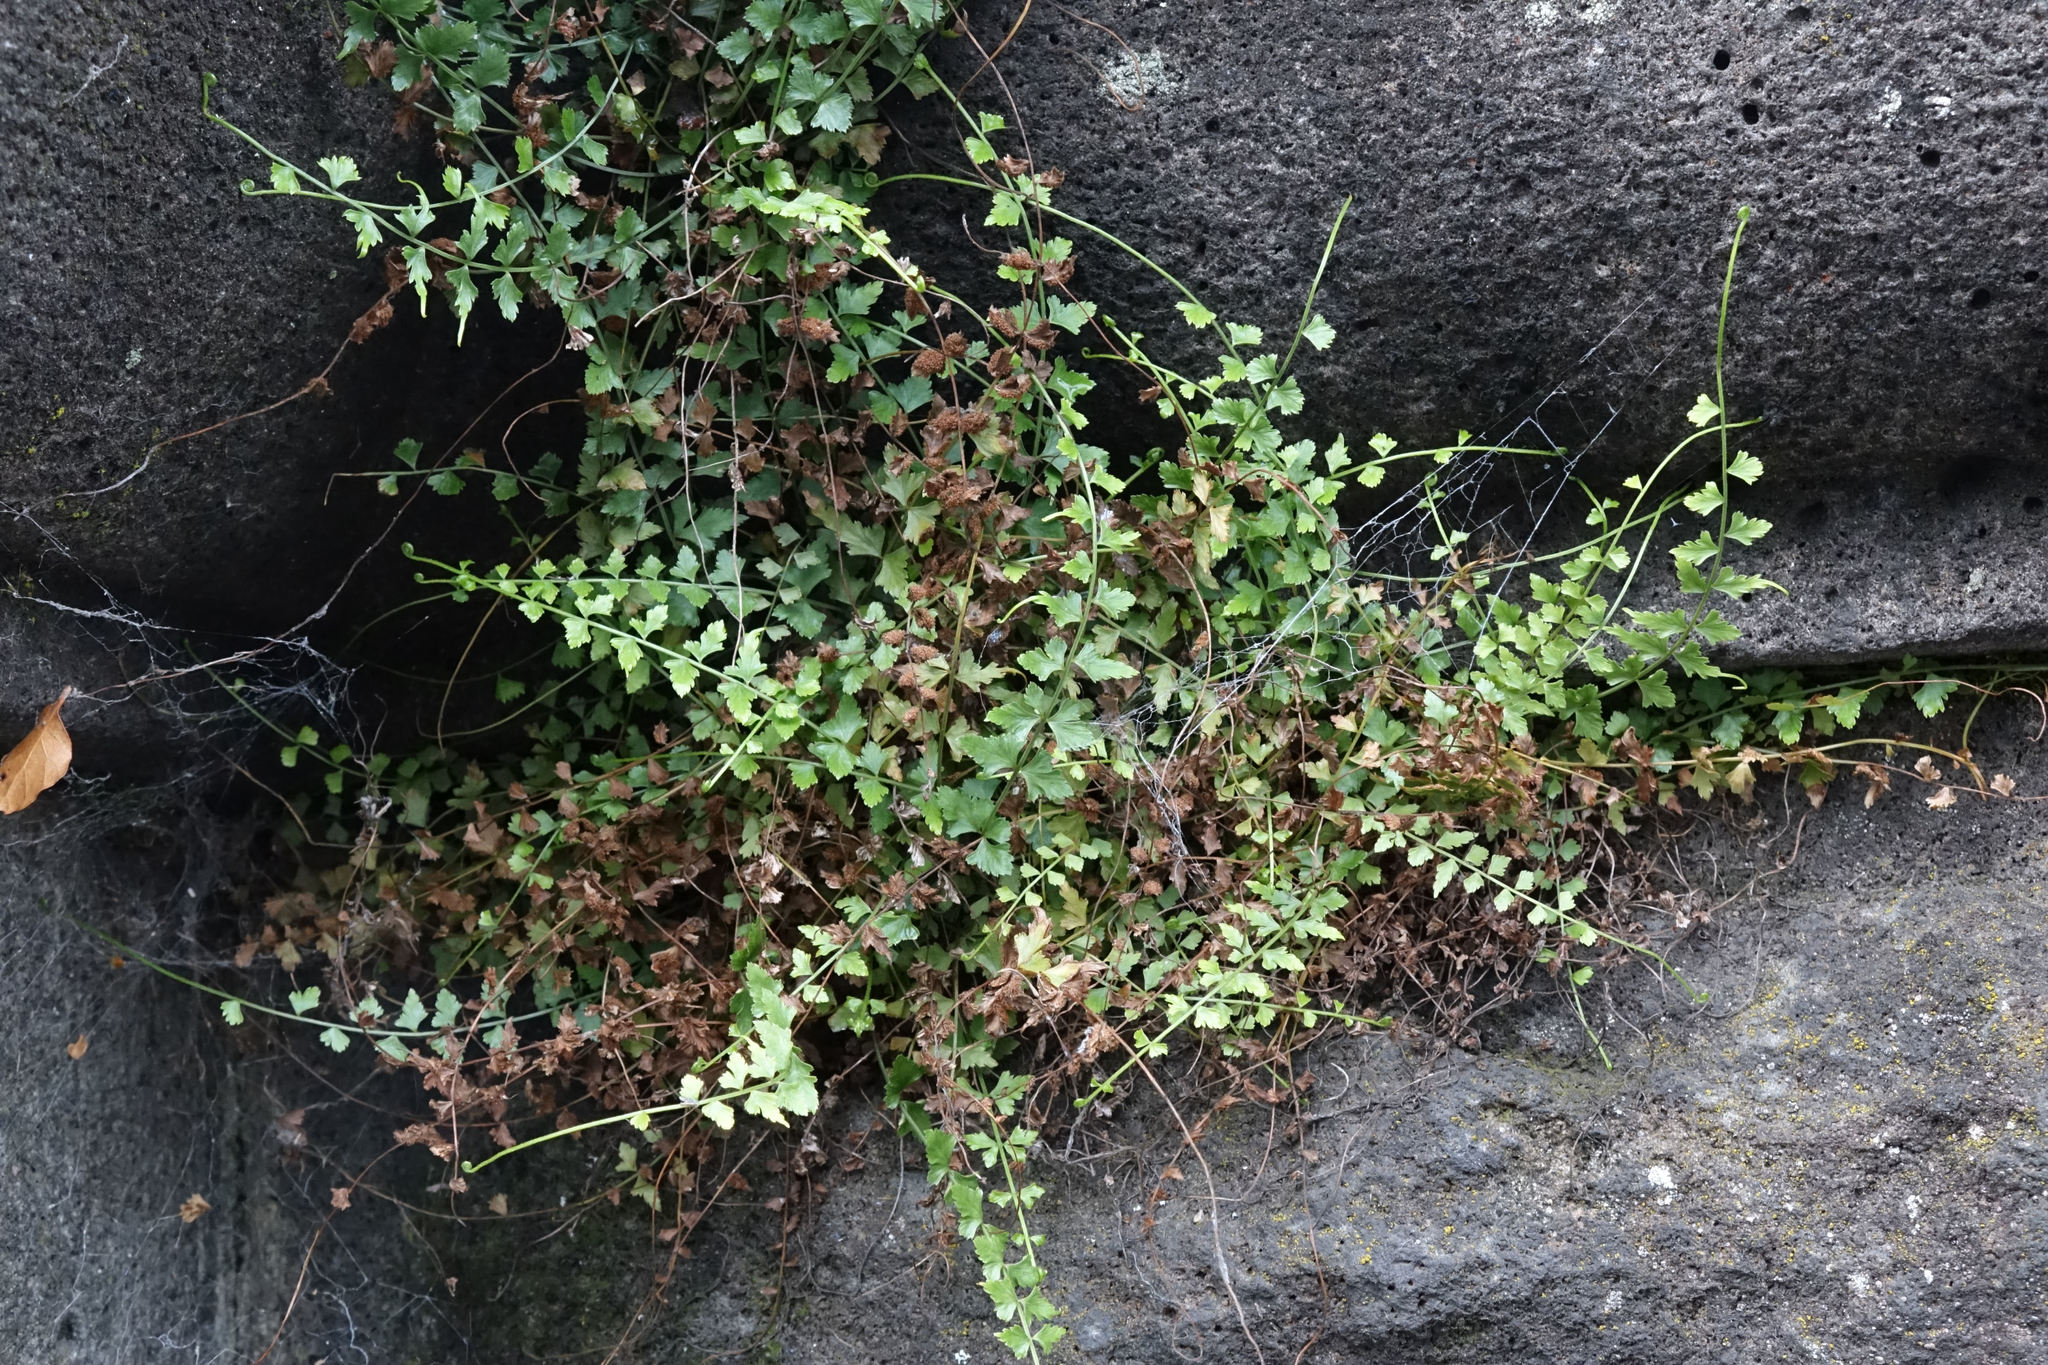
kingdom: Plantae
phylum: Tracheophyta
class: Polypodiopsida
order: Polypodiales
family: Aspleniaceae
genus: Asplenium
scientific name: Asplenium flabellifolium
